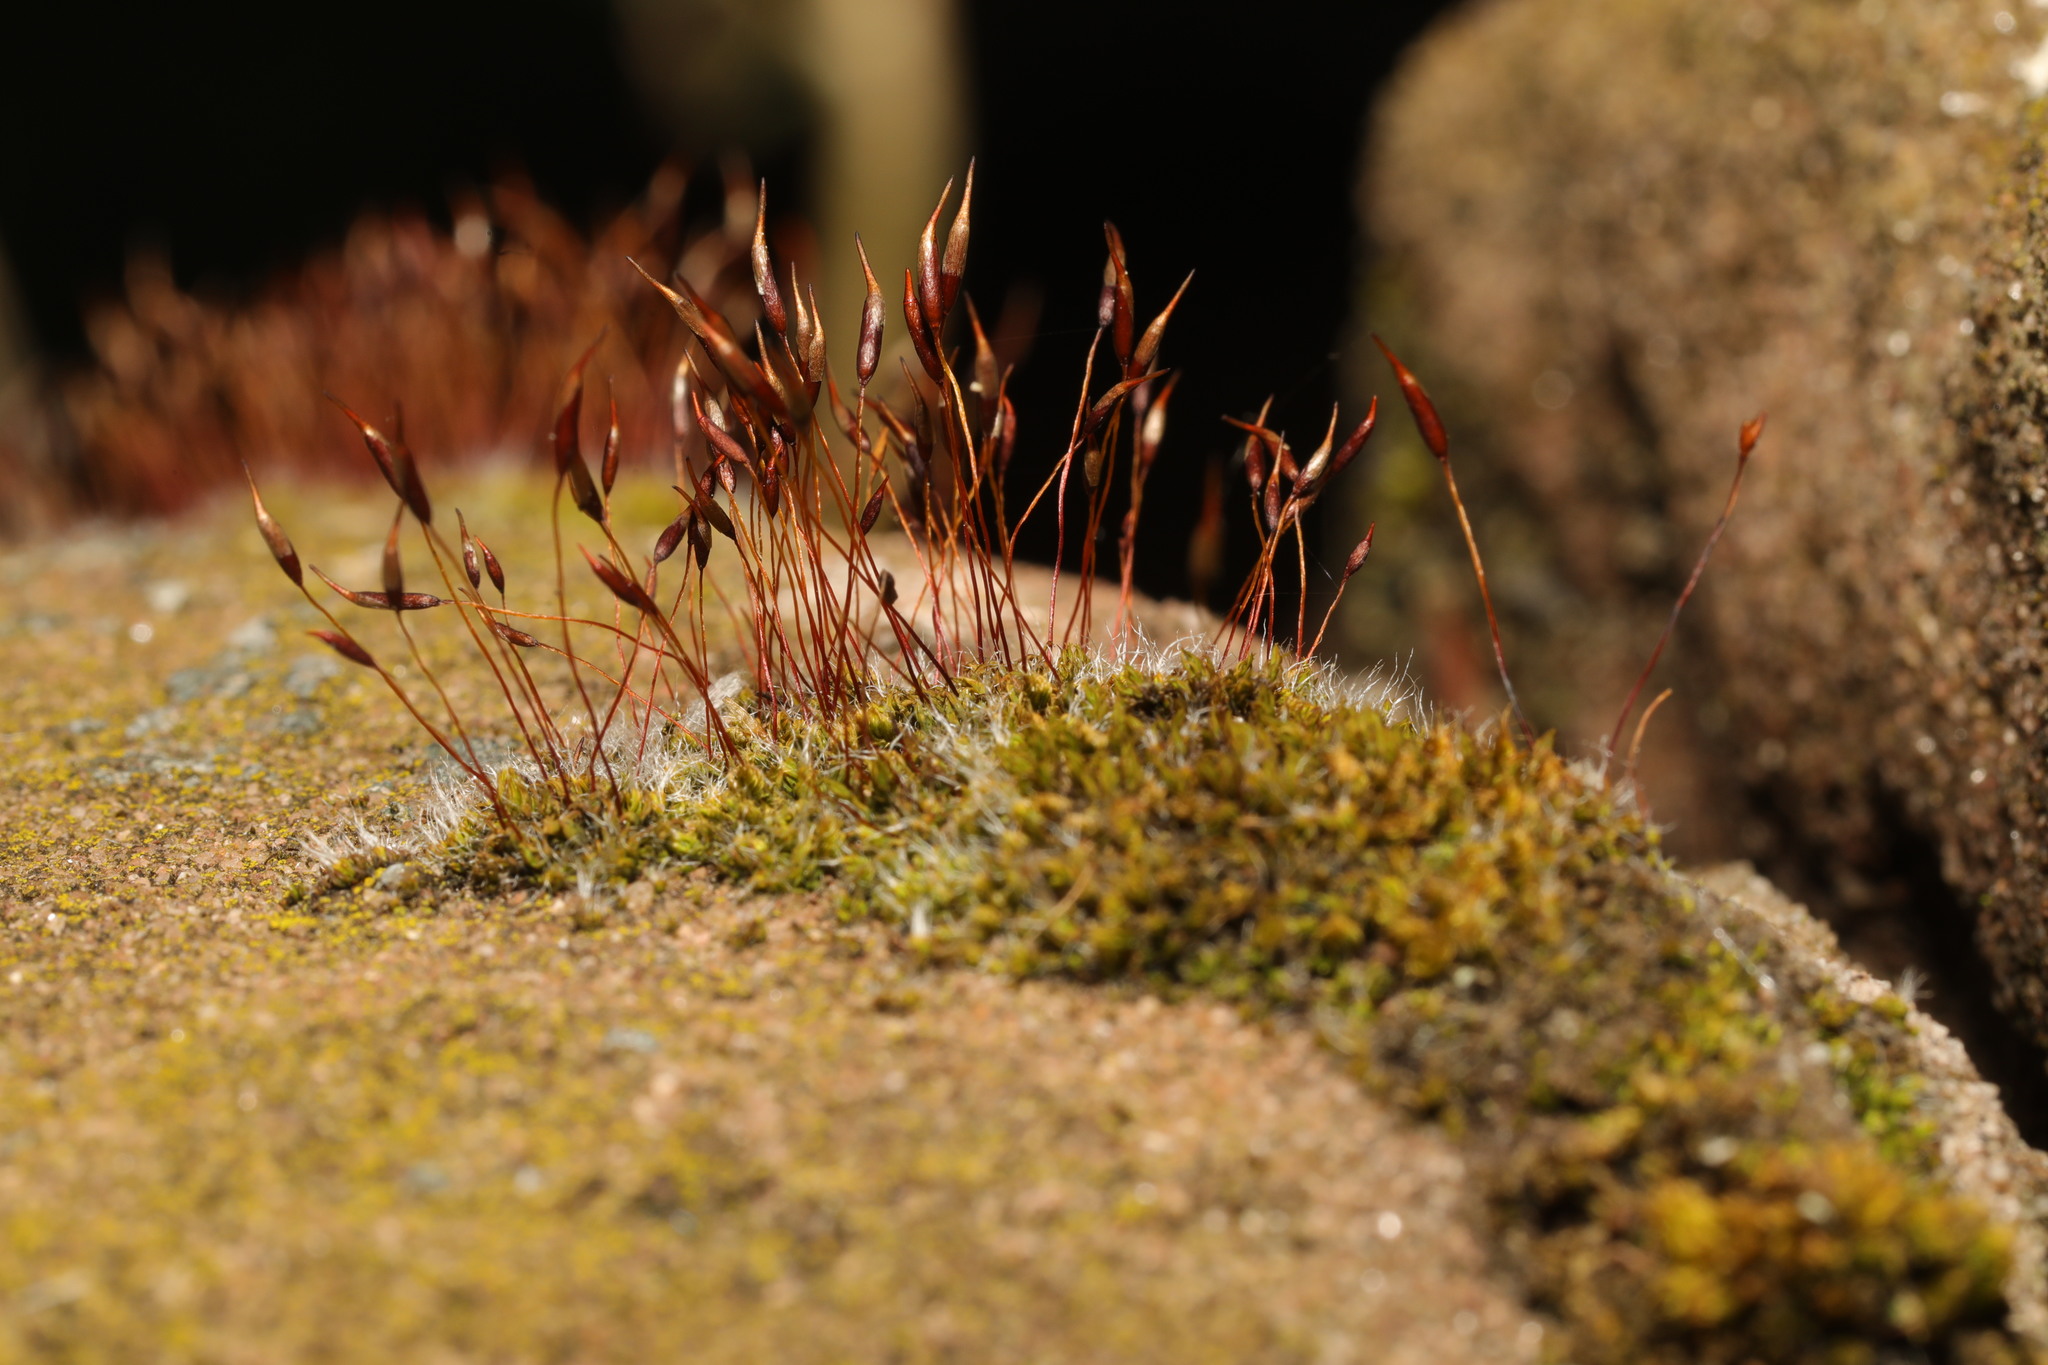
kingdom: Plantae
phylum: Bryophyta
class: Bryopsida
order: Pottiales
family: Pottiaceae
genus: Tortula
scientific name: Tortula muralis
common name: Wall screw-moss
